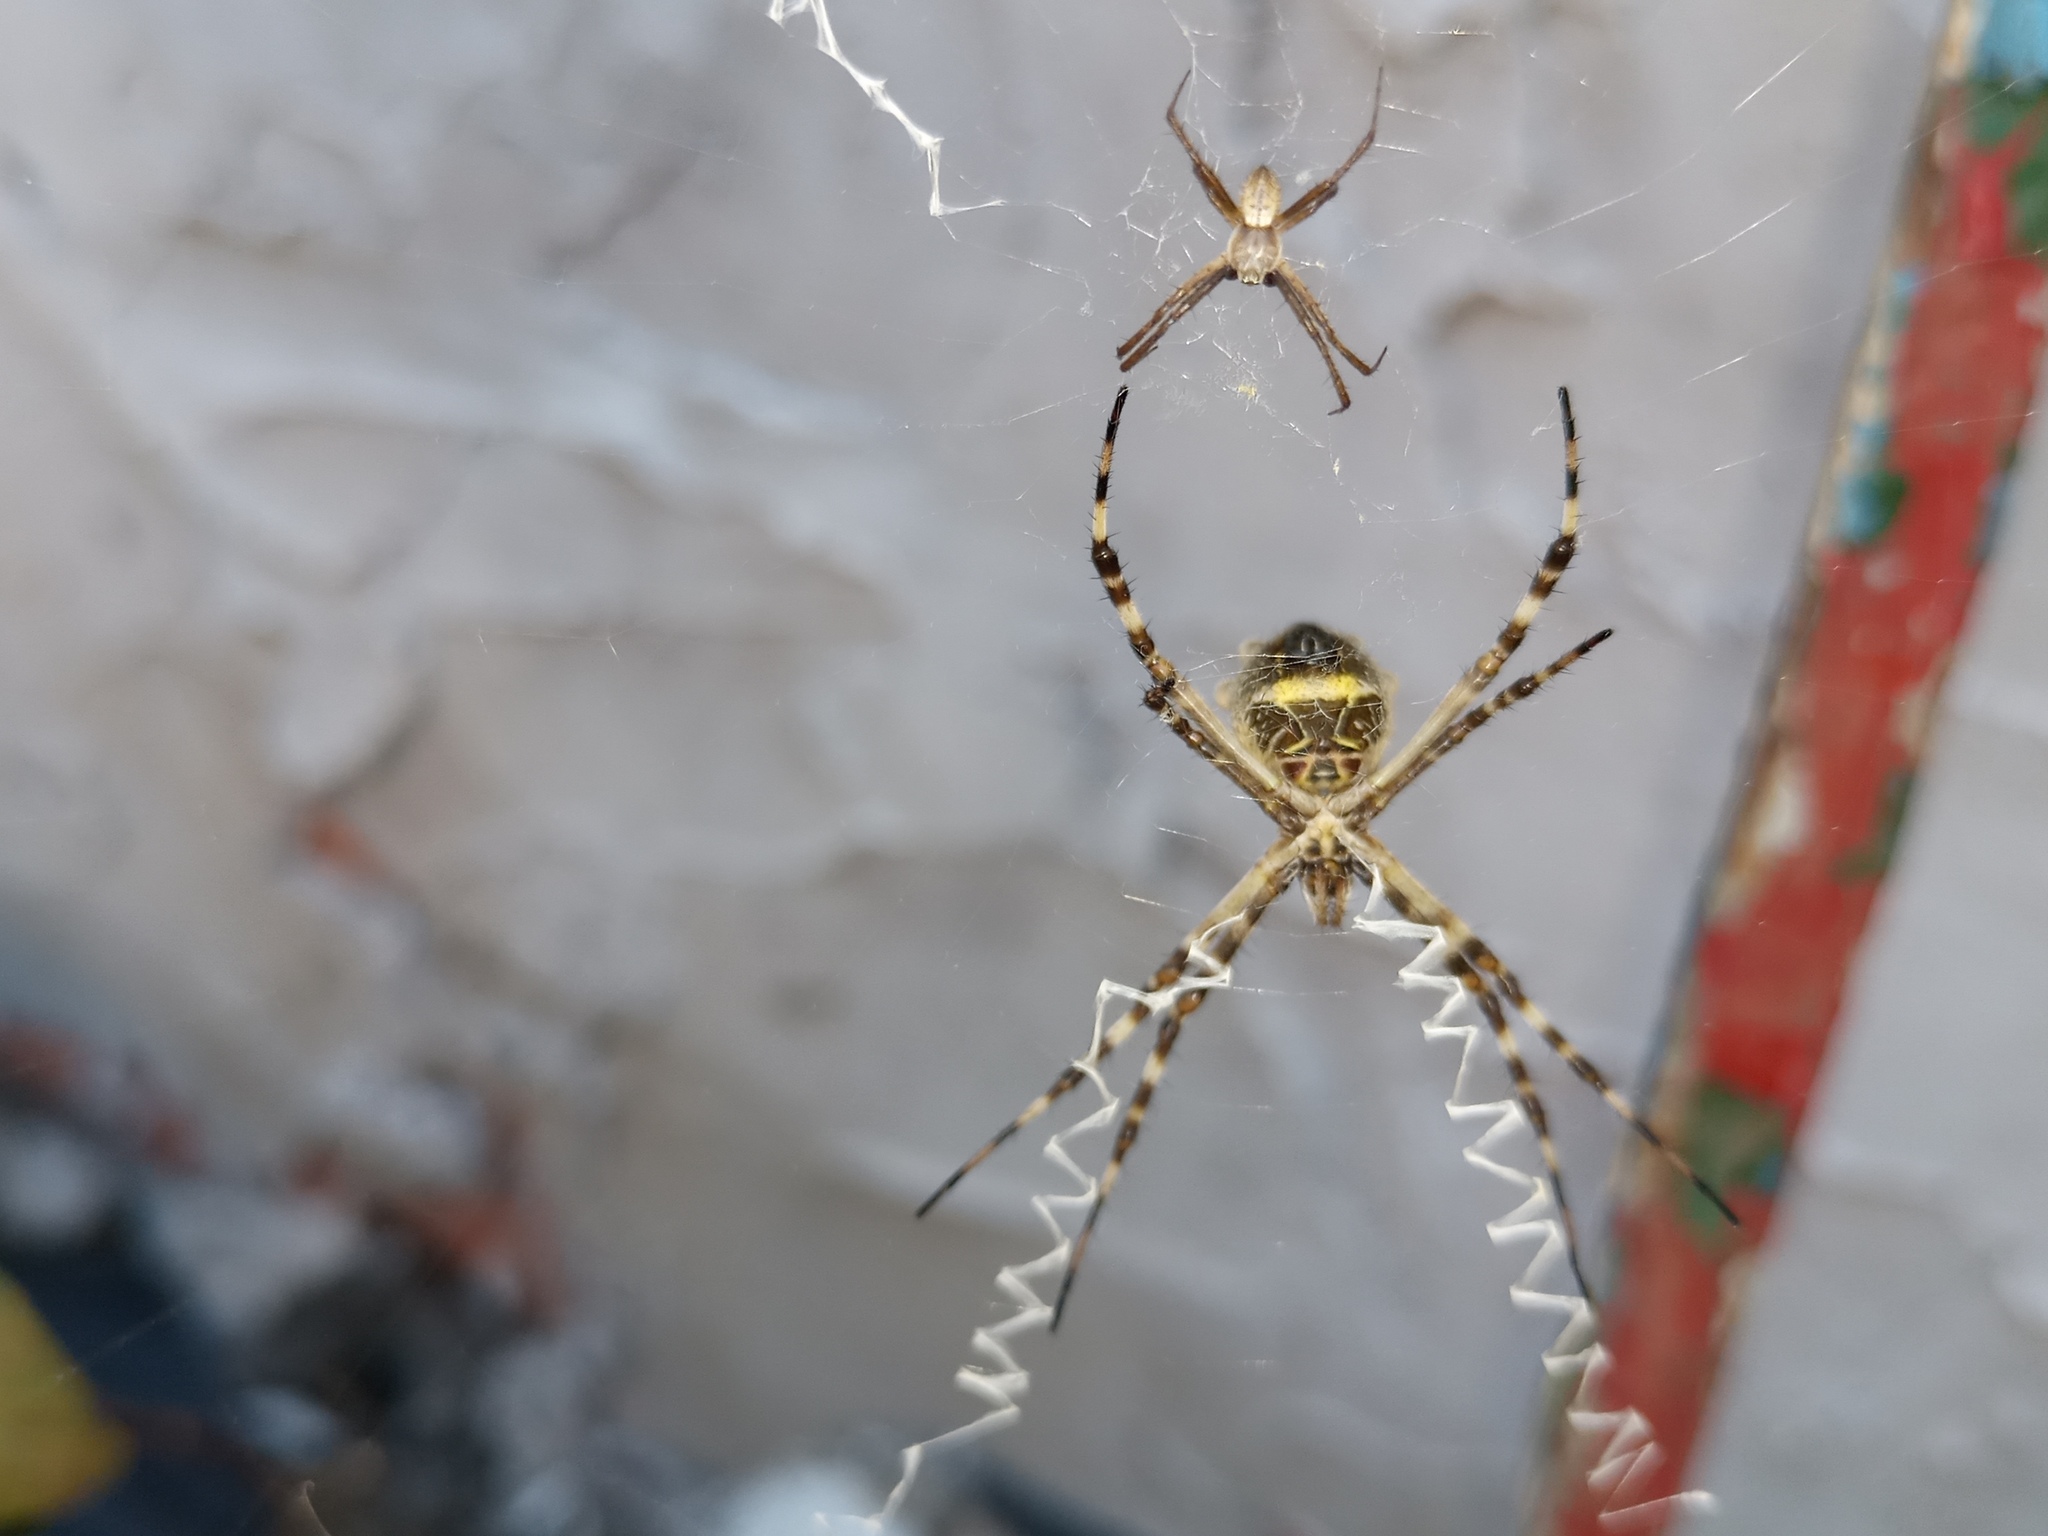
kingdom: Animalia
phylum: Arthropoda
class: Arachnida
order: Araneae
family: Araneidae
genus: Argiope
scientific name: Argiope argentata
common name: Orb weavers
